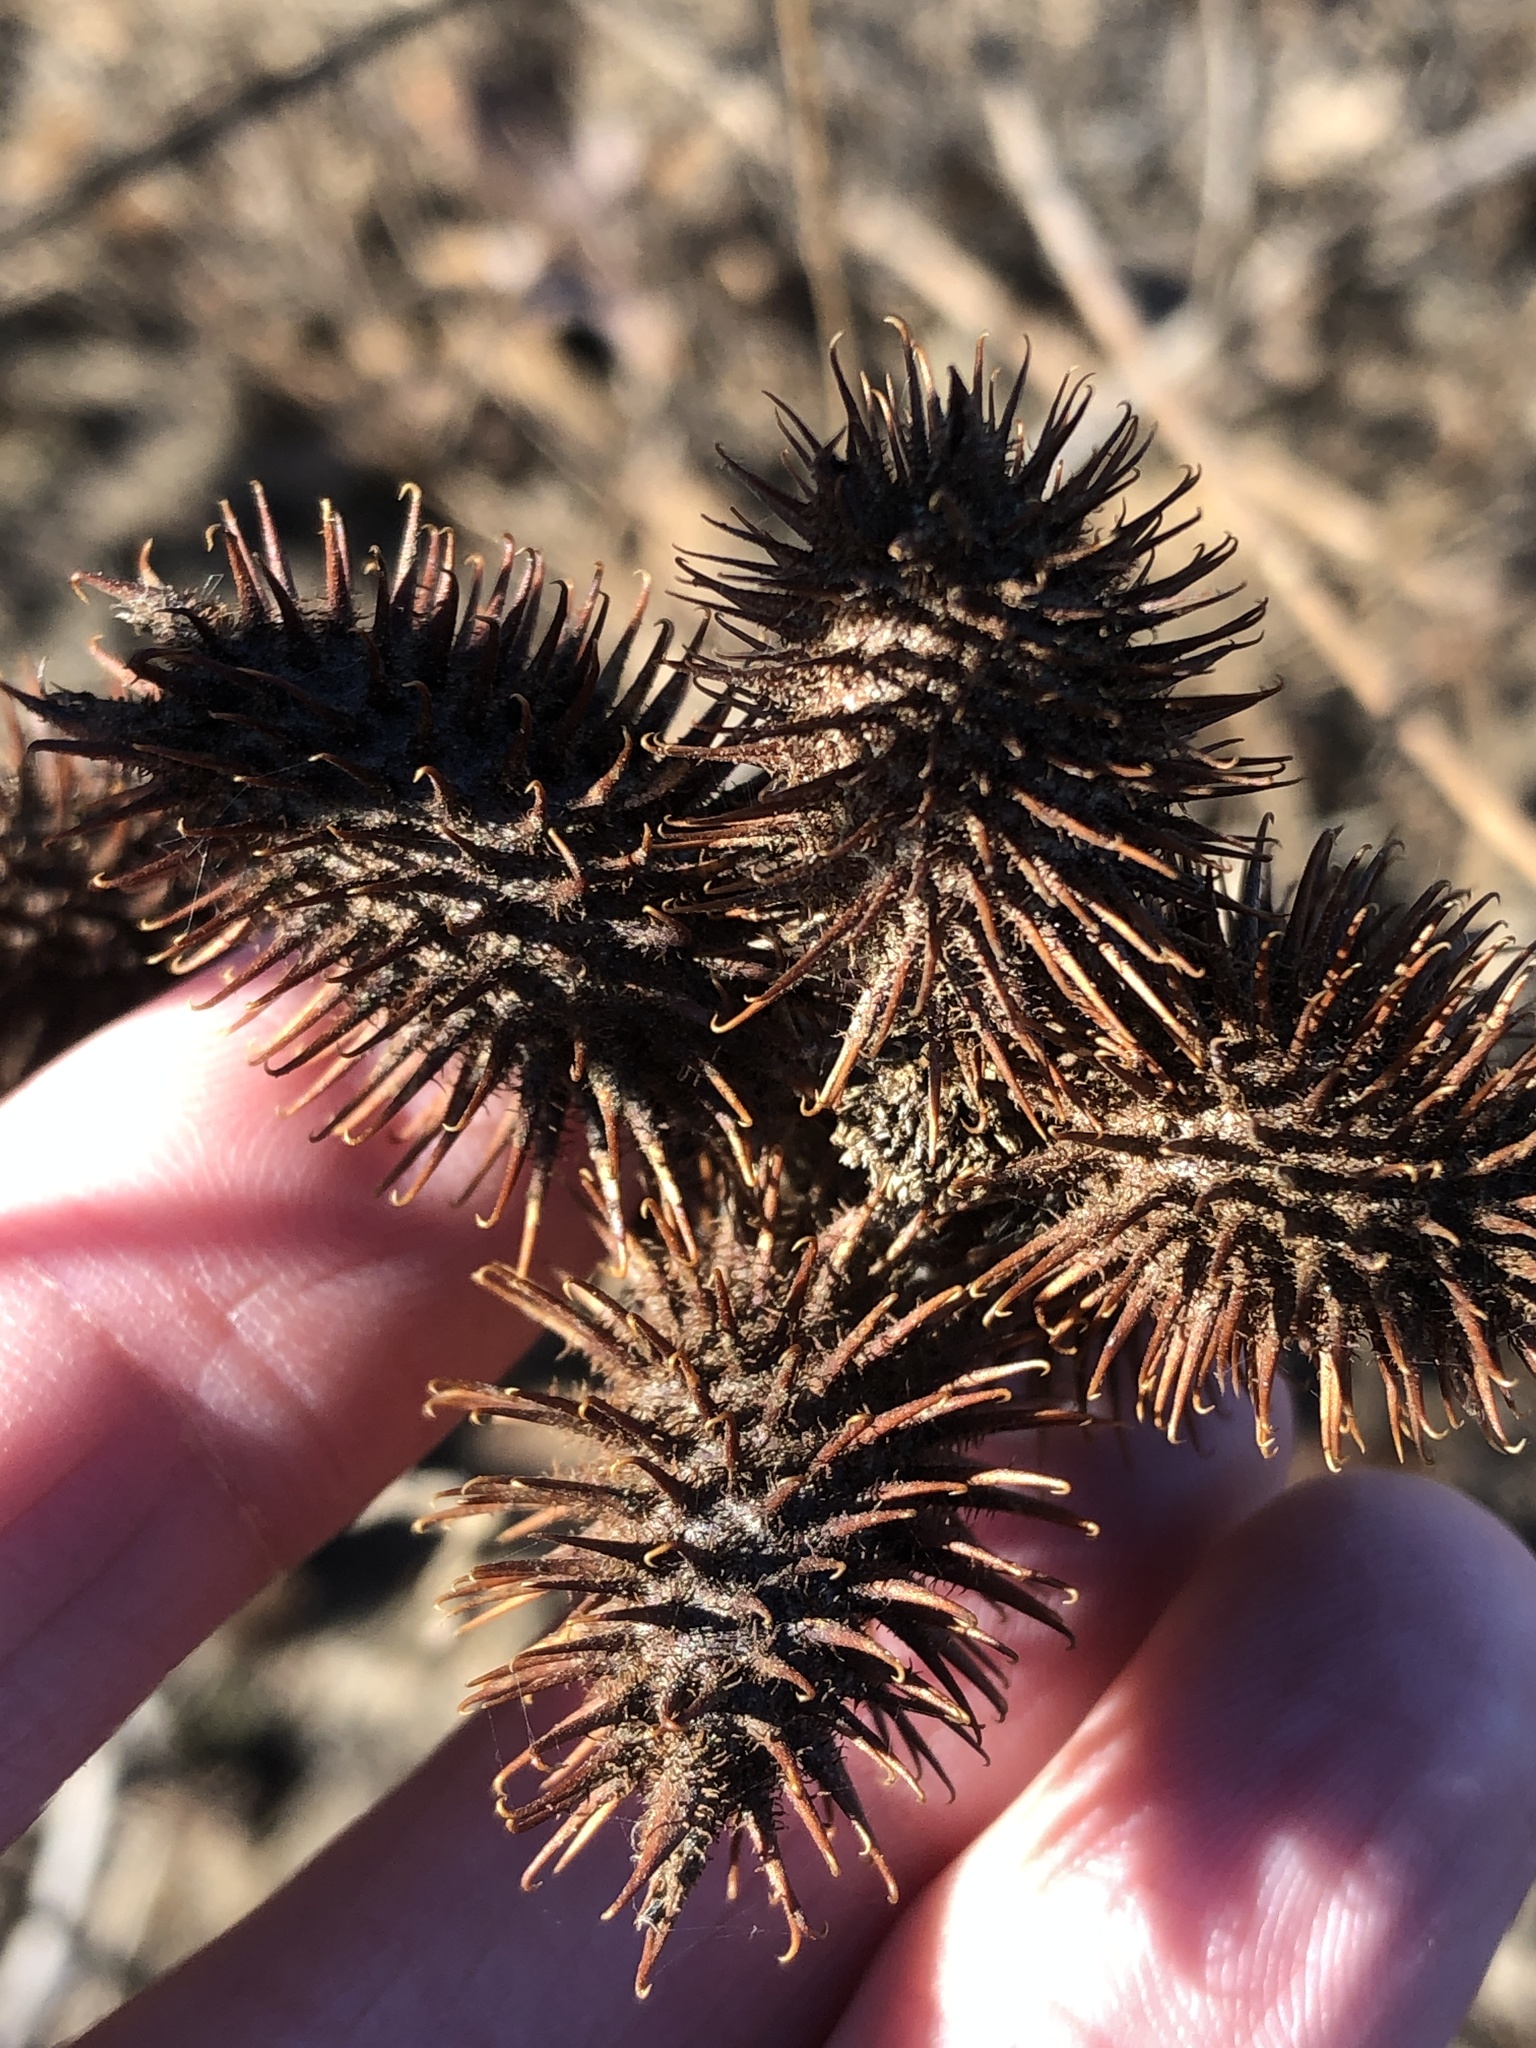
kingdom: Plantae
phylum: Tracheophyta
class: Magnoliopsida
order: Asterales
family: Asteraceae
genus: Xanthium
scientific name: Xanthium strumarium
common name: Rough cocklebur
